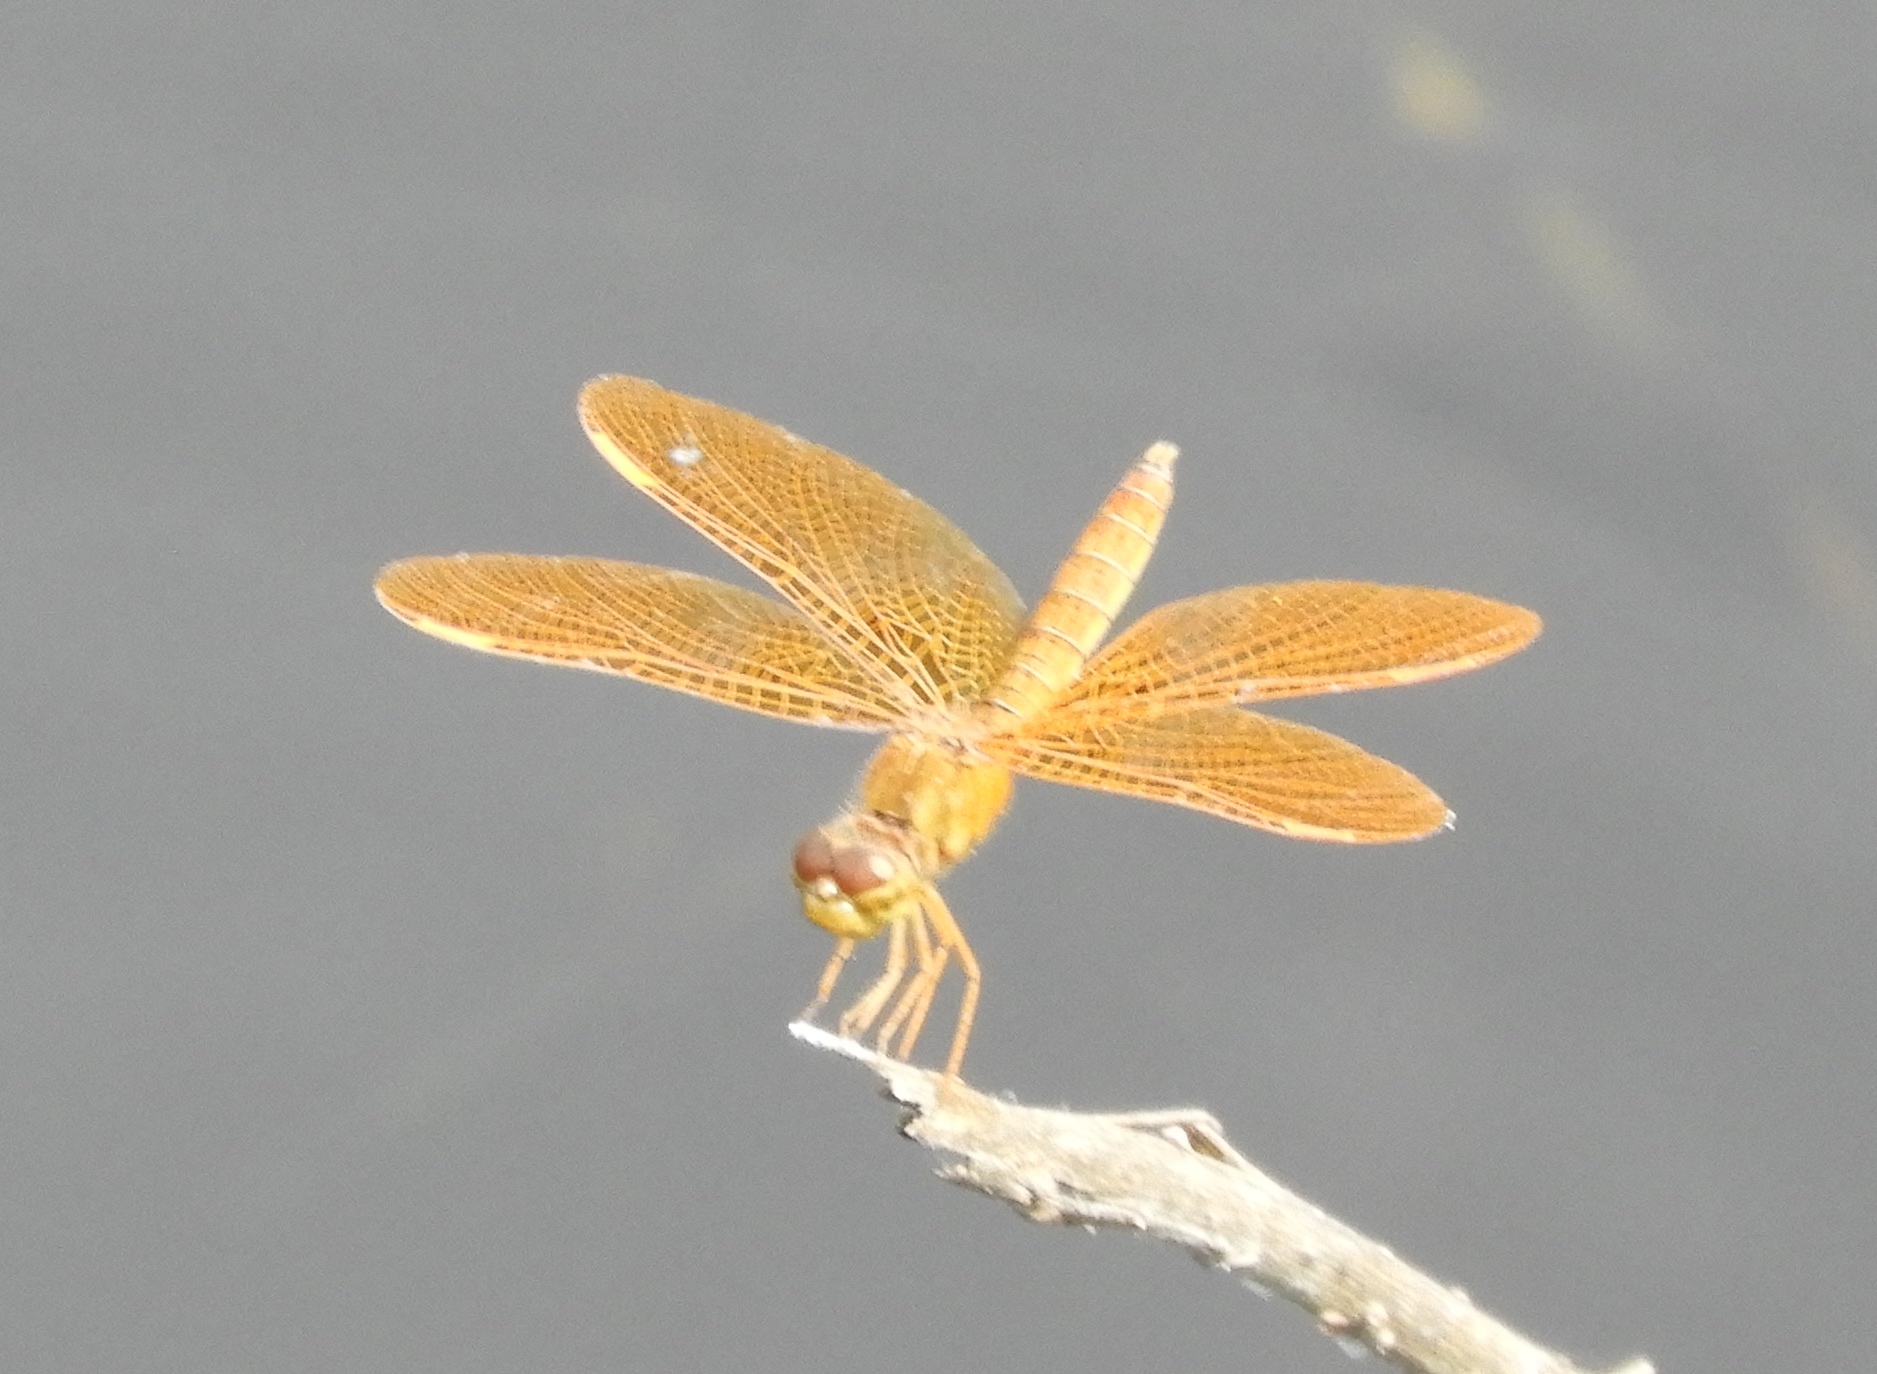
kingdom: Animalia
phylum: Arthropoda
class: Insecta
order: Odonata
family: Libellulidae
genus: Perithemis
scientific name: Perithemis intensa
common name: Mexican amberwing
